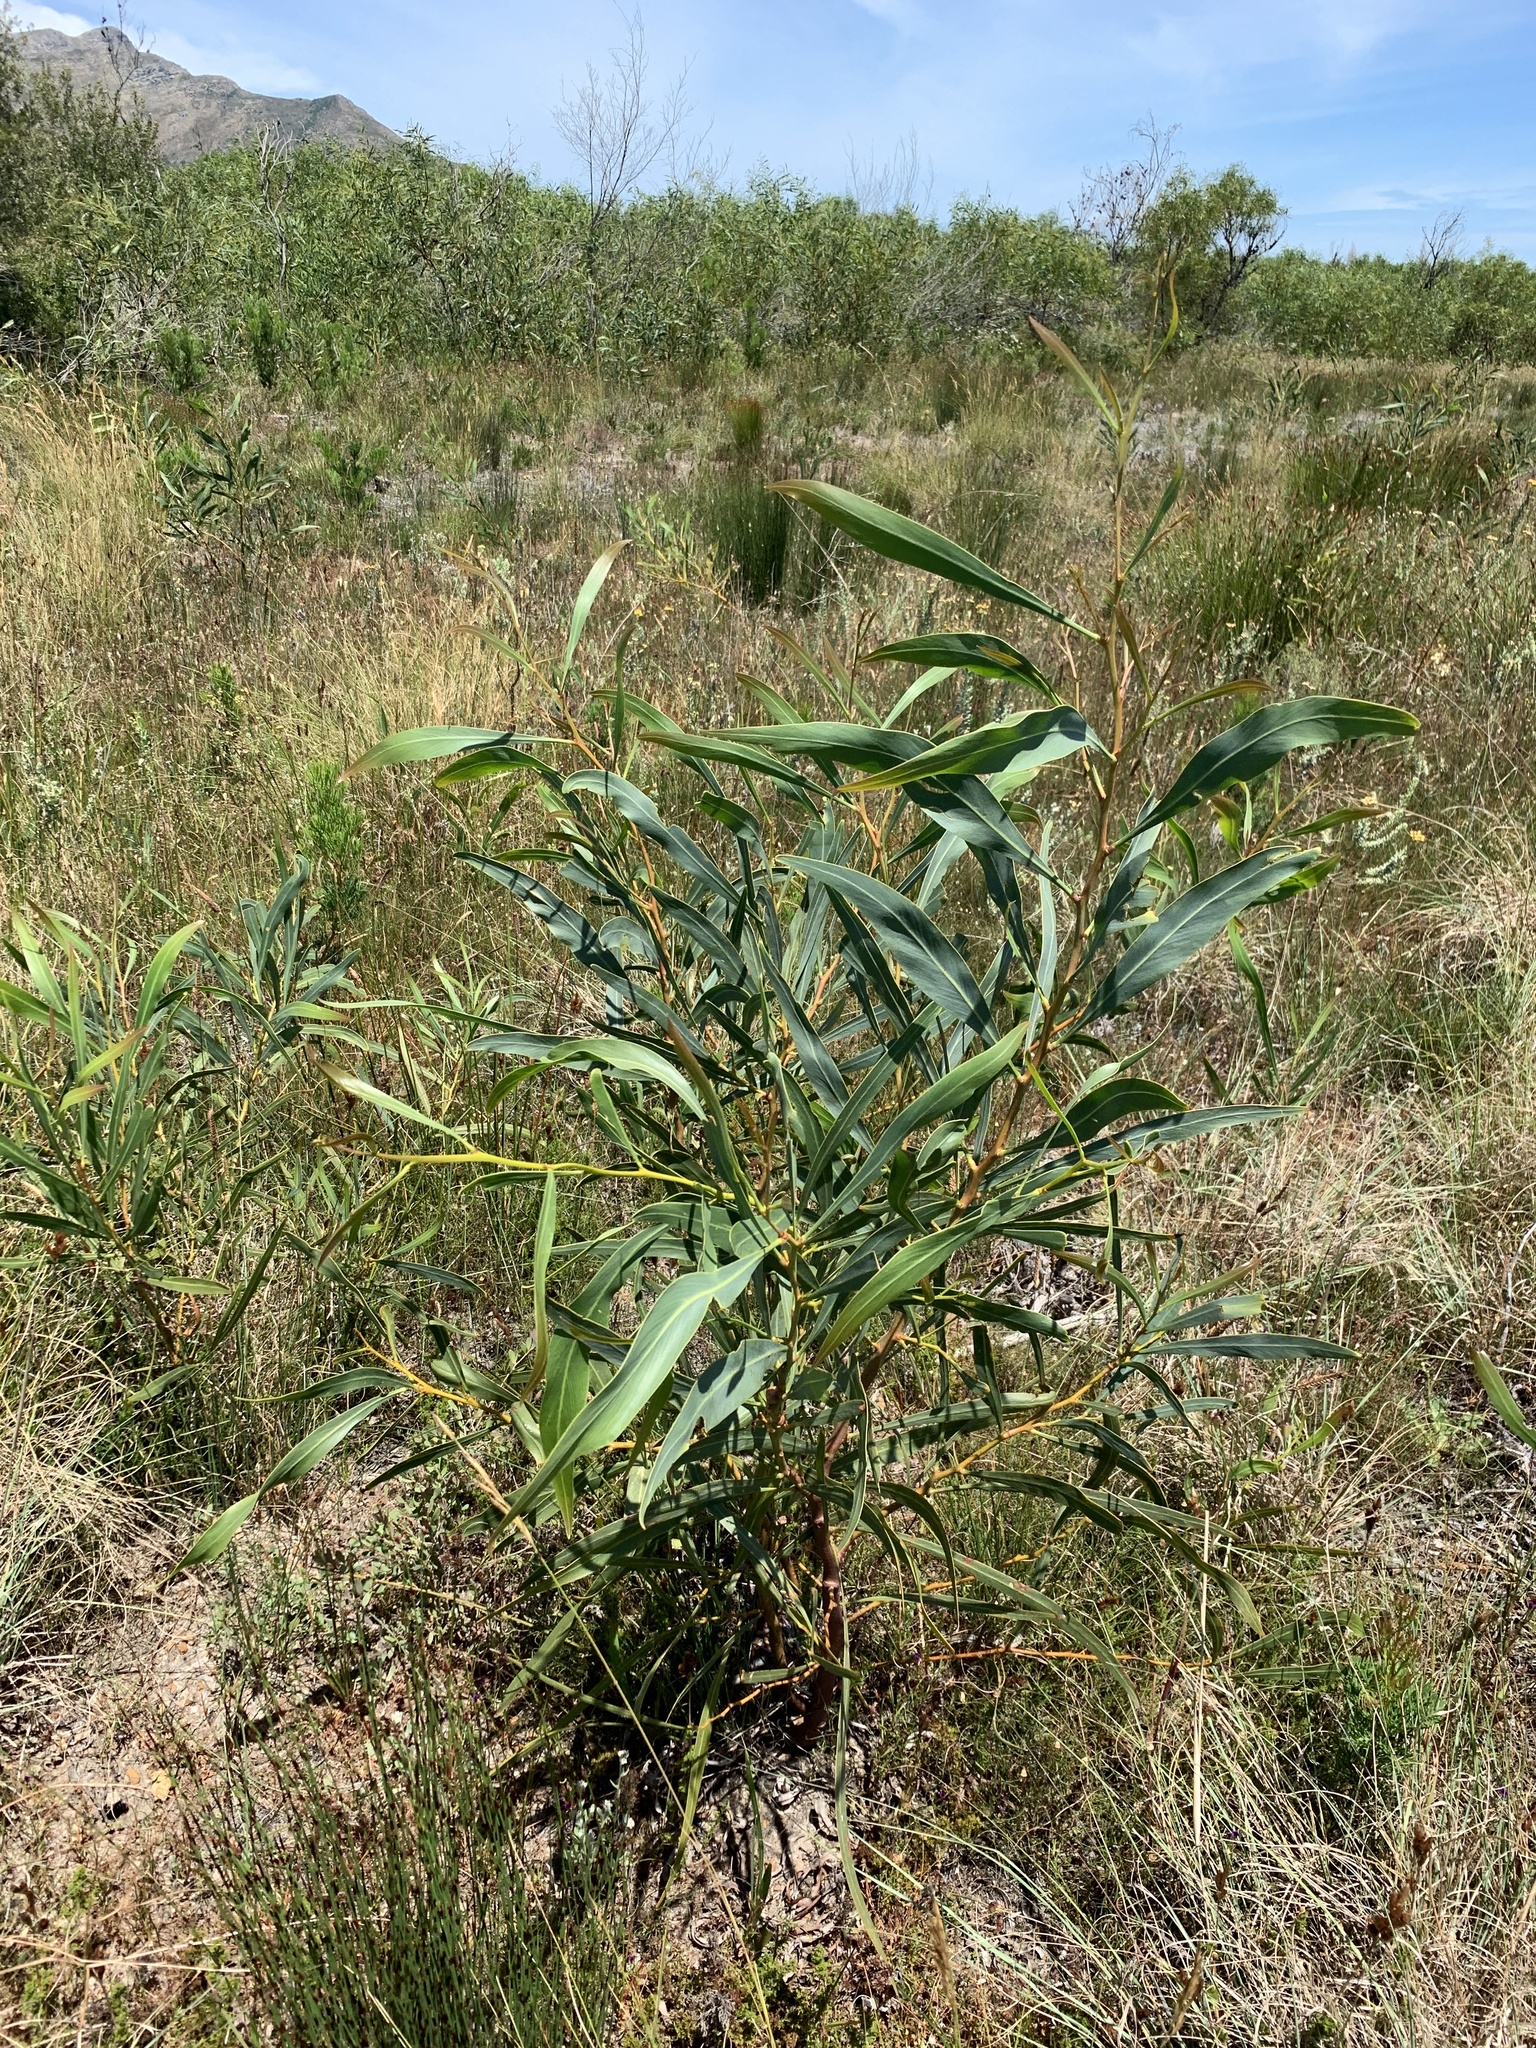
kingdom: Plantae
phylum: Tracheophyta
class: Magnoliopsida
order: Fabales
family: Fabaceae
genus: Acacia
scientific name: Acacia saligna
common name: Orange wattle
